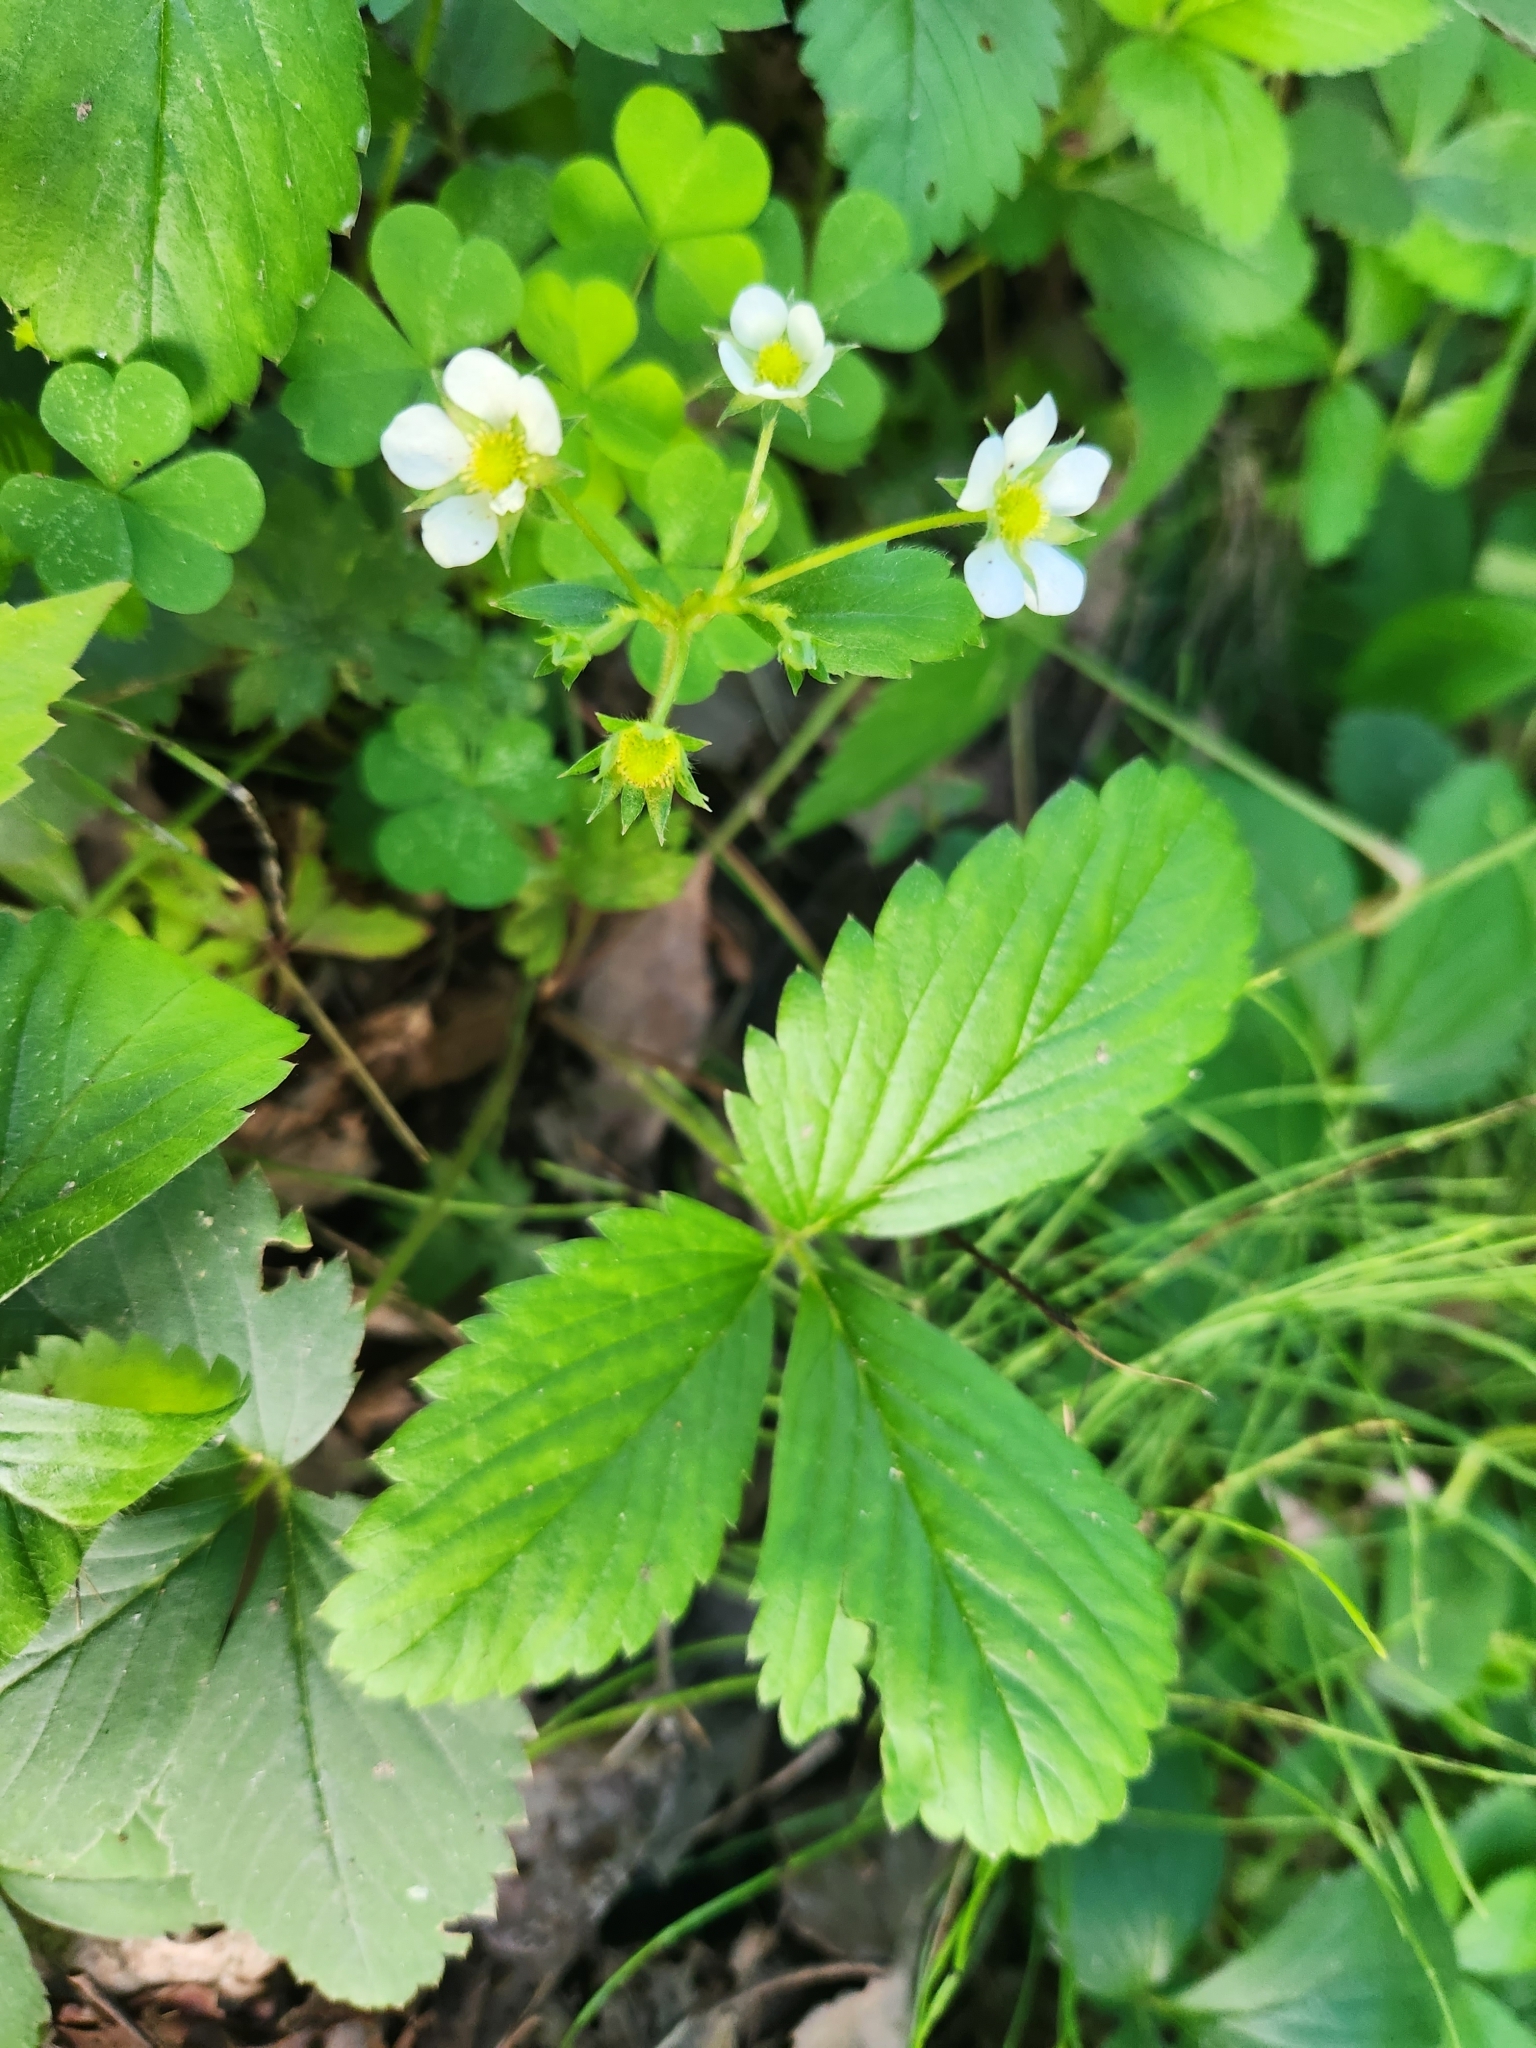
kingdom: Plantae
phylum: Tracheophyta
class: Magnoliopsida
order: Rosales
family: Rosaceae
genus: Fragaria
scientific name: Fragaria virginiana
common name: Thickleaved wild strawberry
